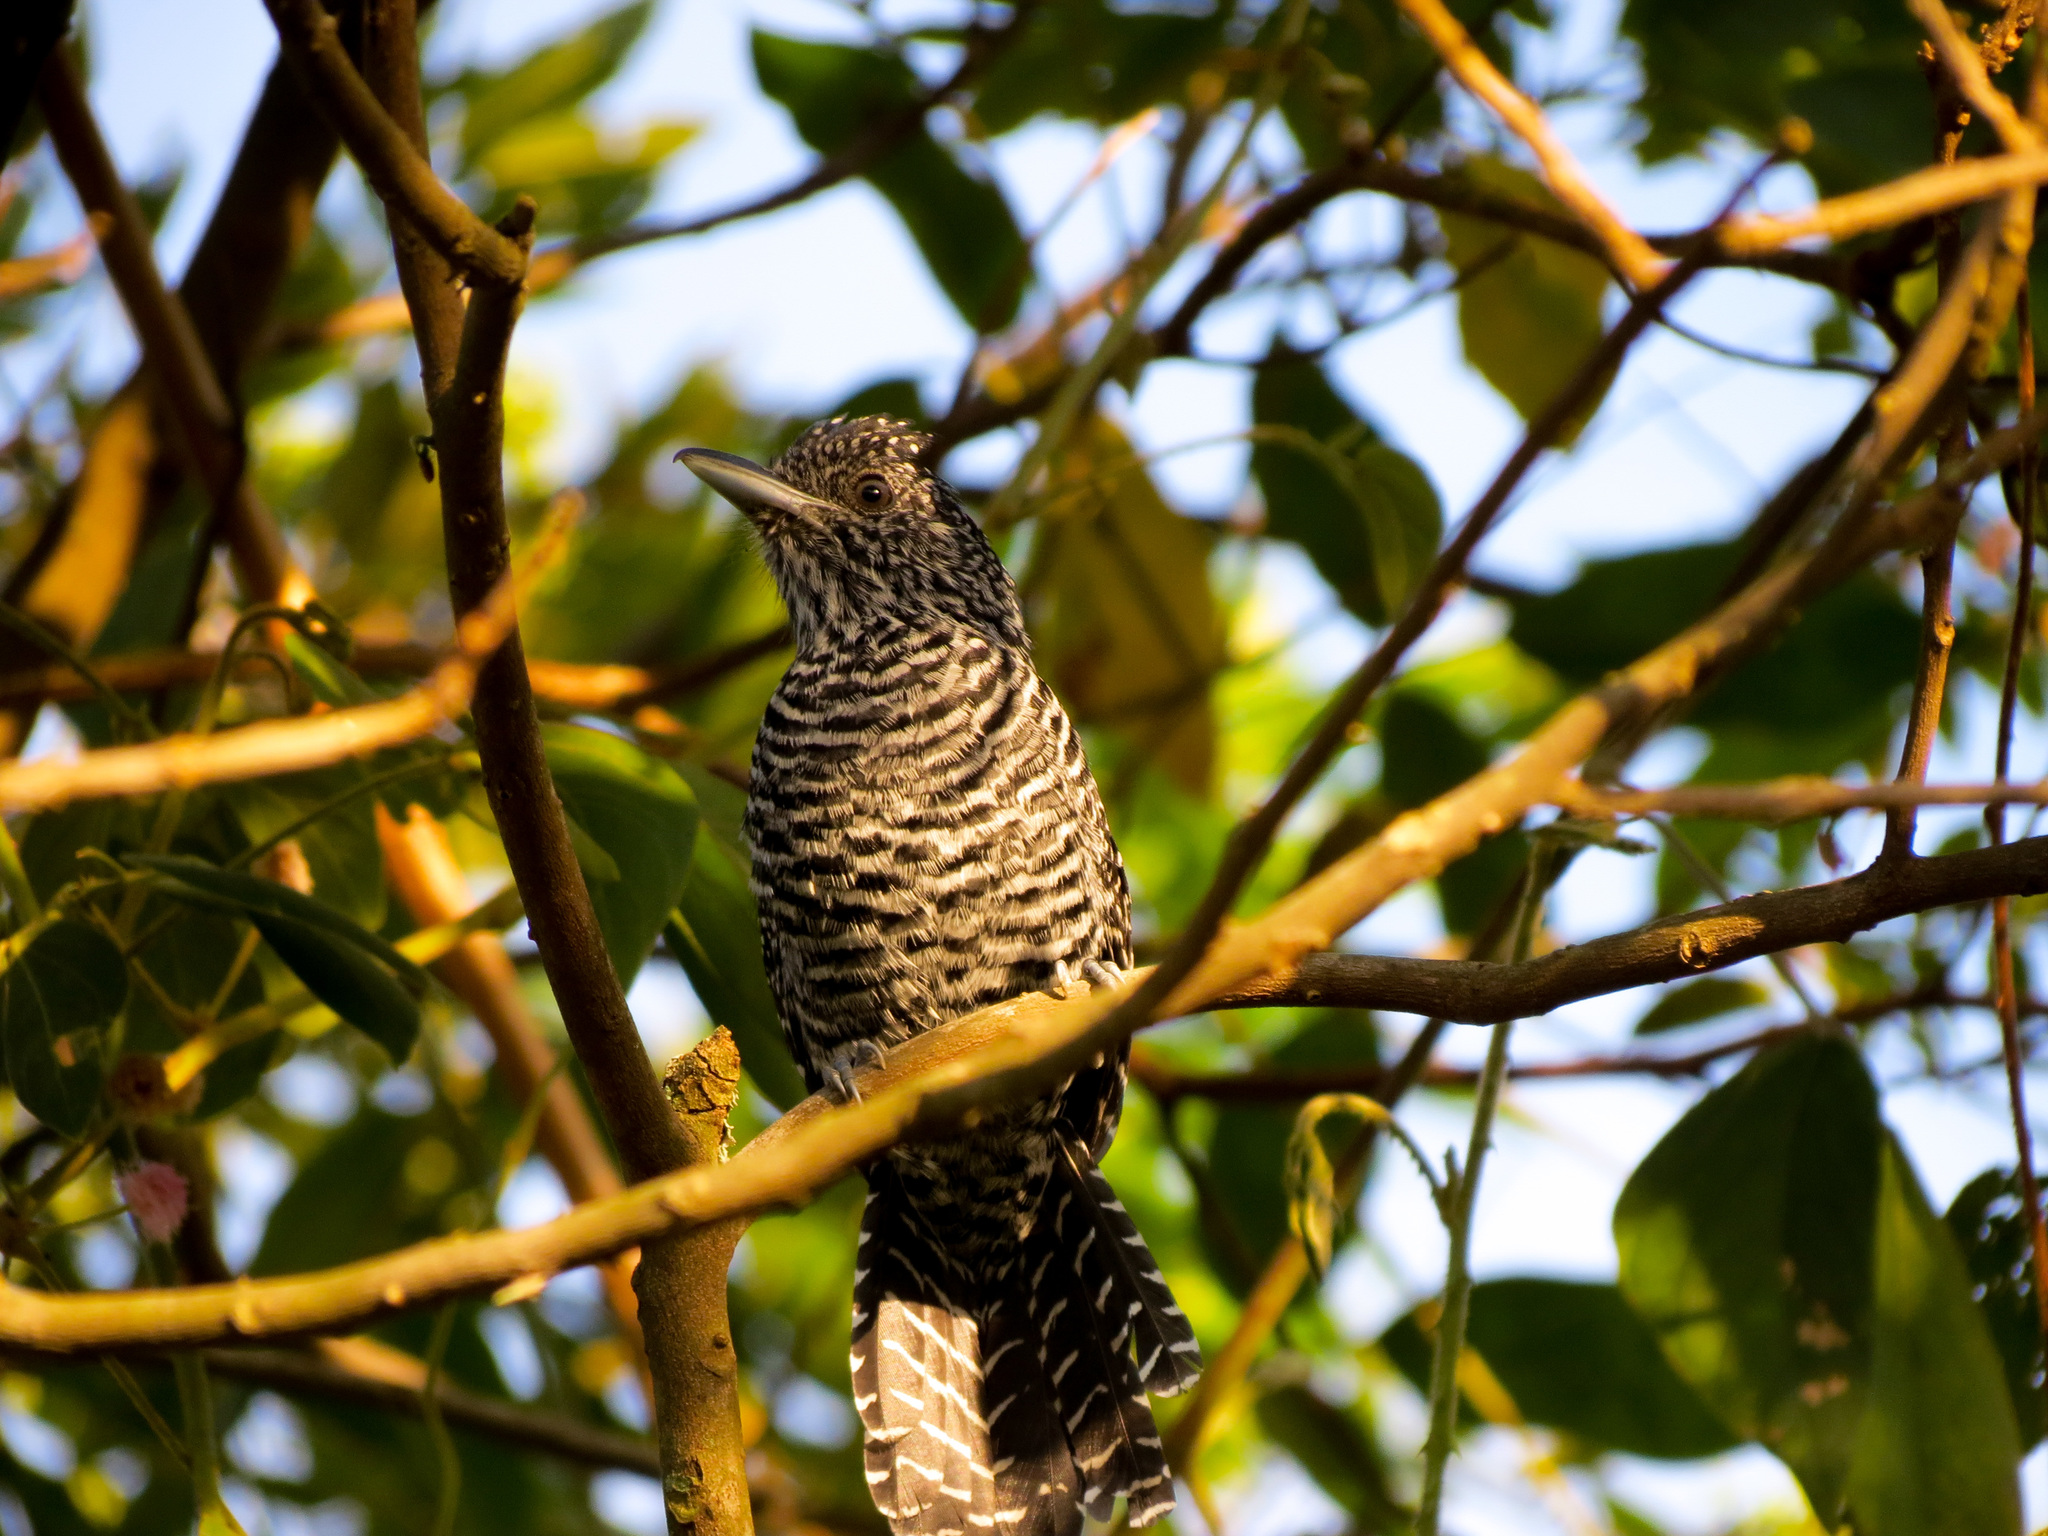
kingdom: Animalia
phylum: Chordata
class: Aves
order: Passeriformes
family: Thamnophilidae
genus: Thamnophilus
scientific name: Thamnophilus multistriatus
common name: Bar-crested antshrike
